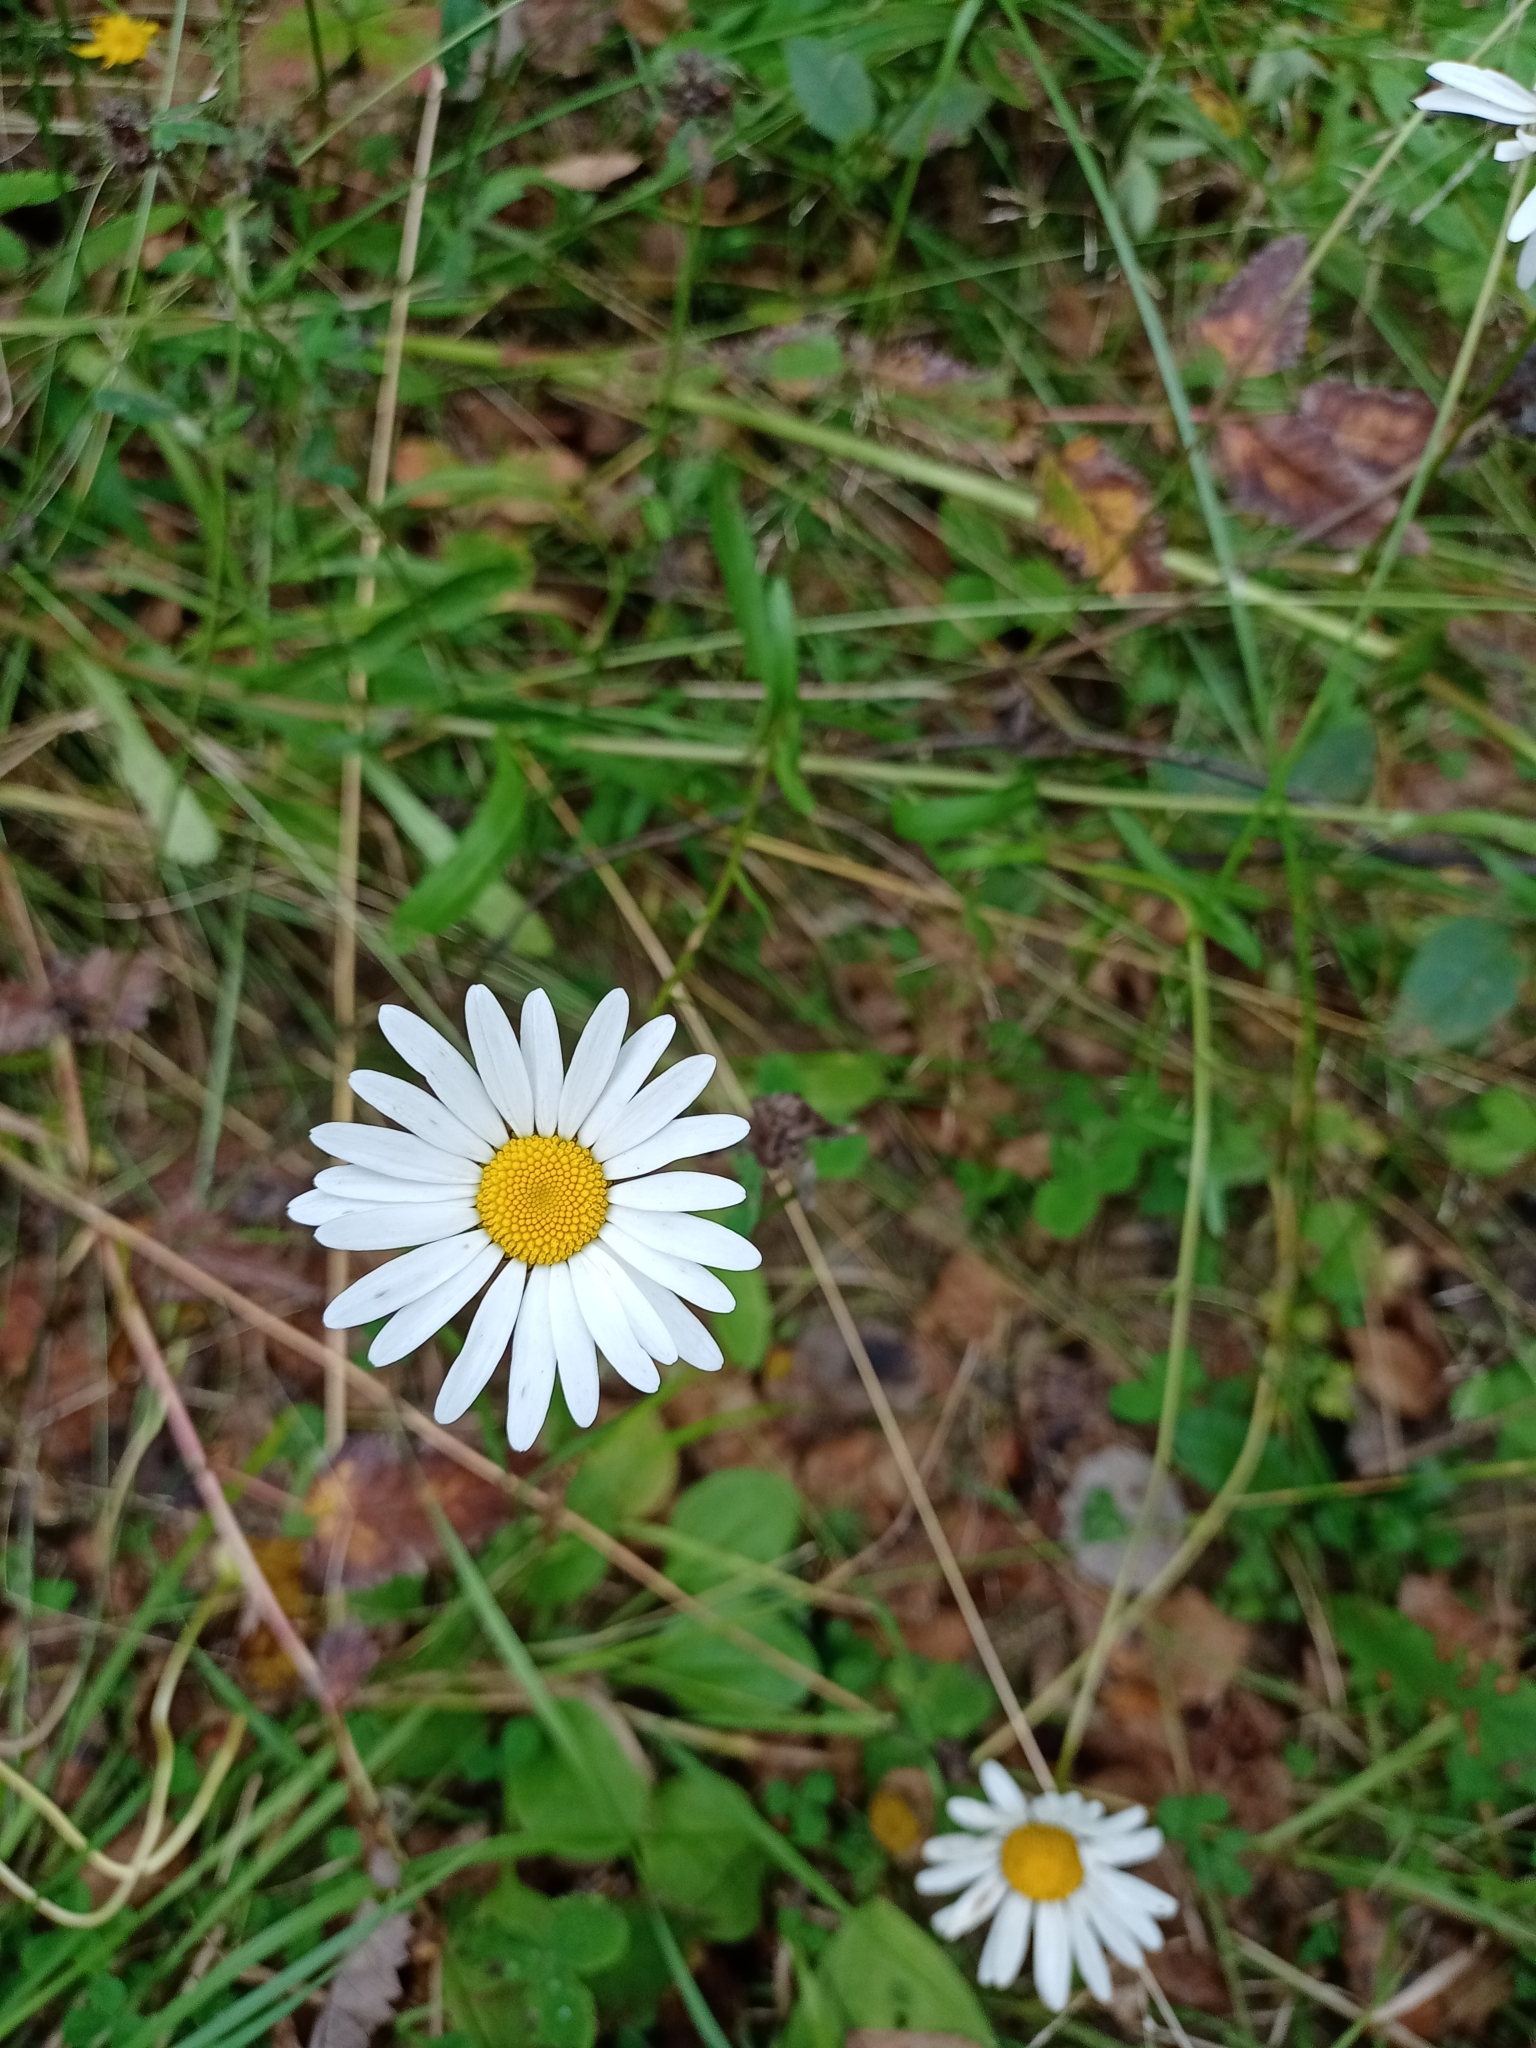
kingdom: Plantae
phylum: Tracheophyta
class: Magnoliopsida
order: Asterales
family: Asteraceae
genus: Leucanthemum
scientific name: Leucanthemum ircutianum
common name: Daisy
